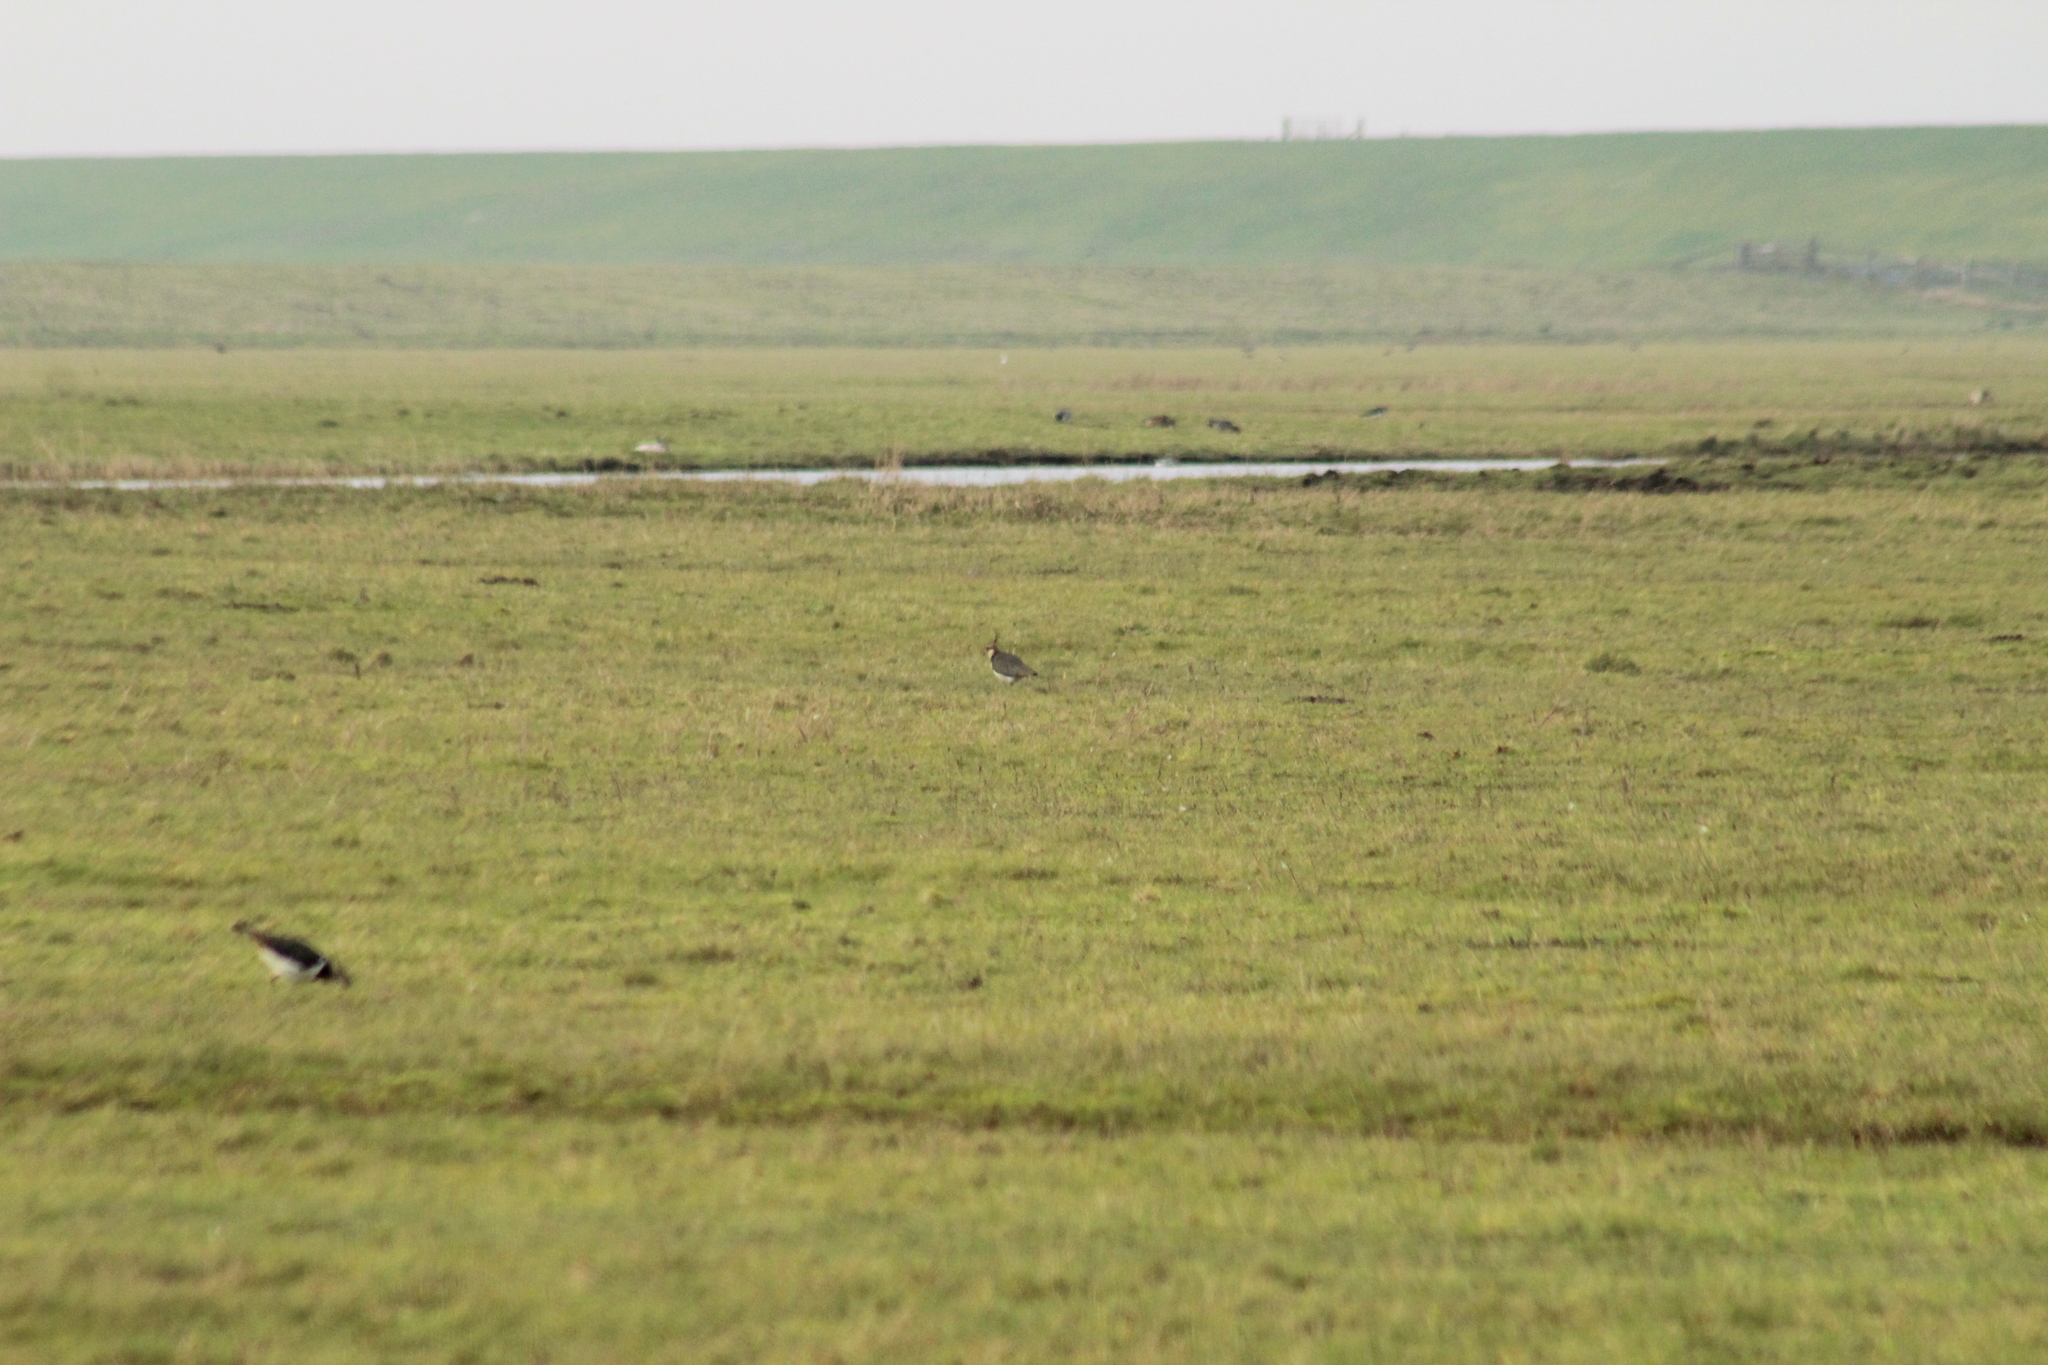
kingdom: Animalia
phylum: Chordata
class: Aves
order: Charadriiformes
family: Charadriidae
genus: Vanellus
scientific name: Vanellus vanellus
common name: Northern lapwing
